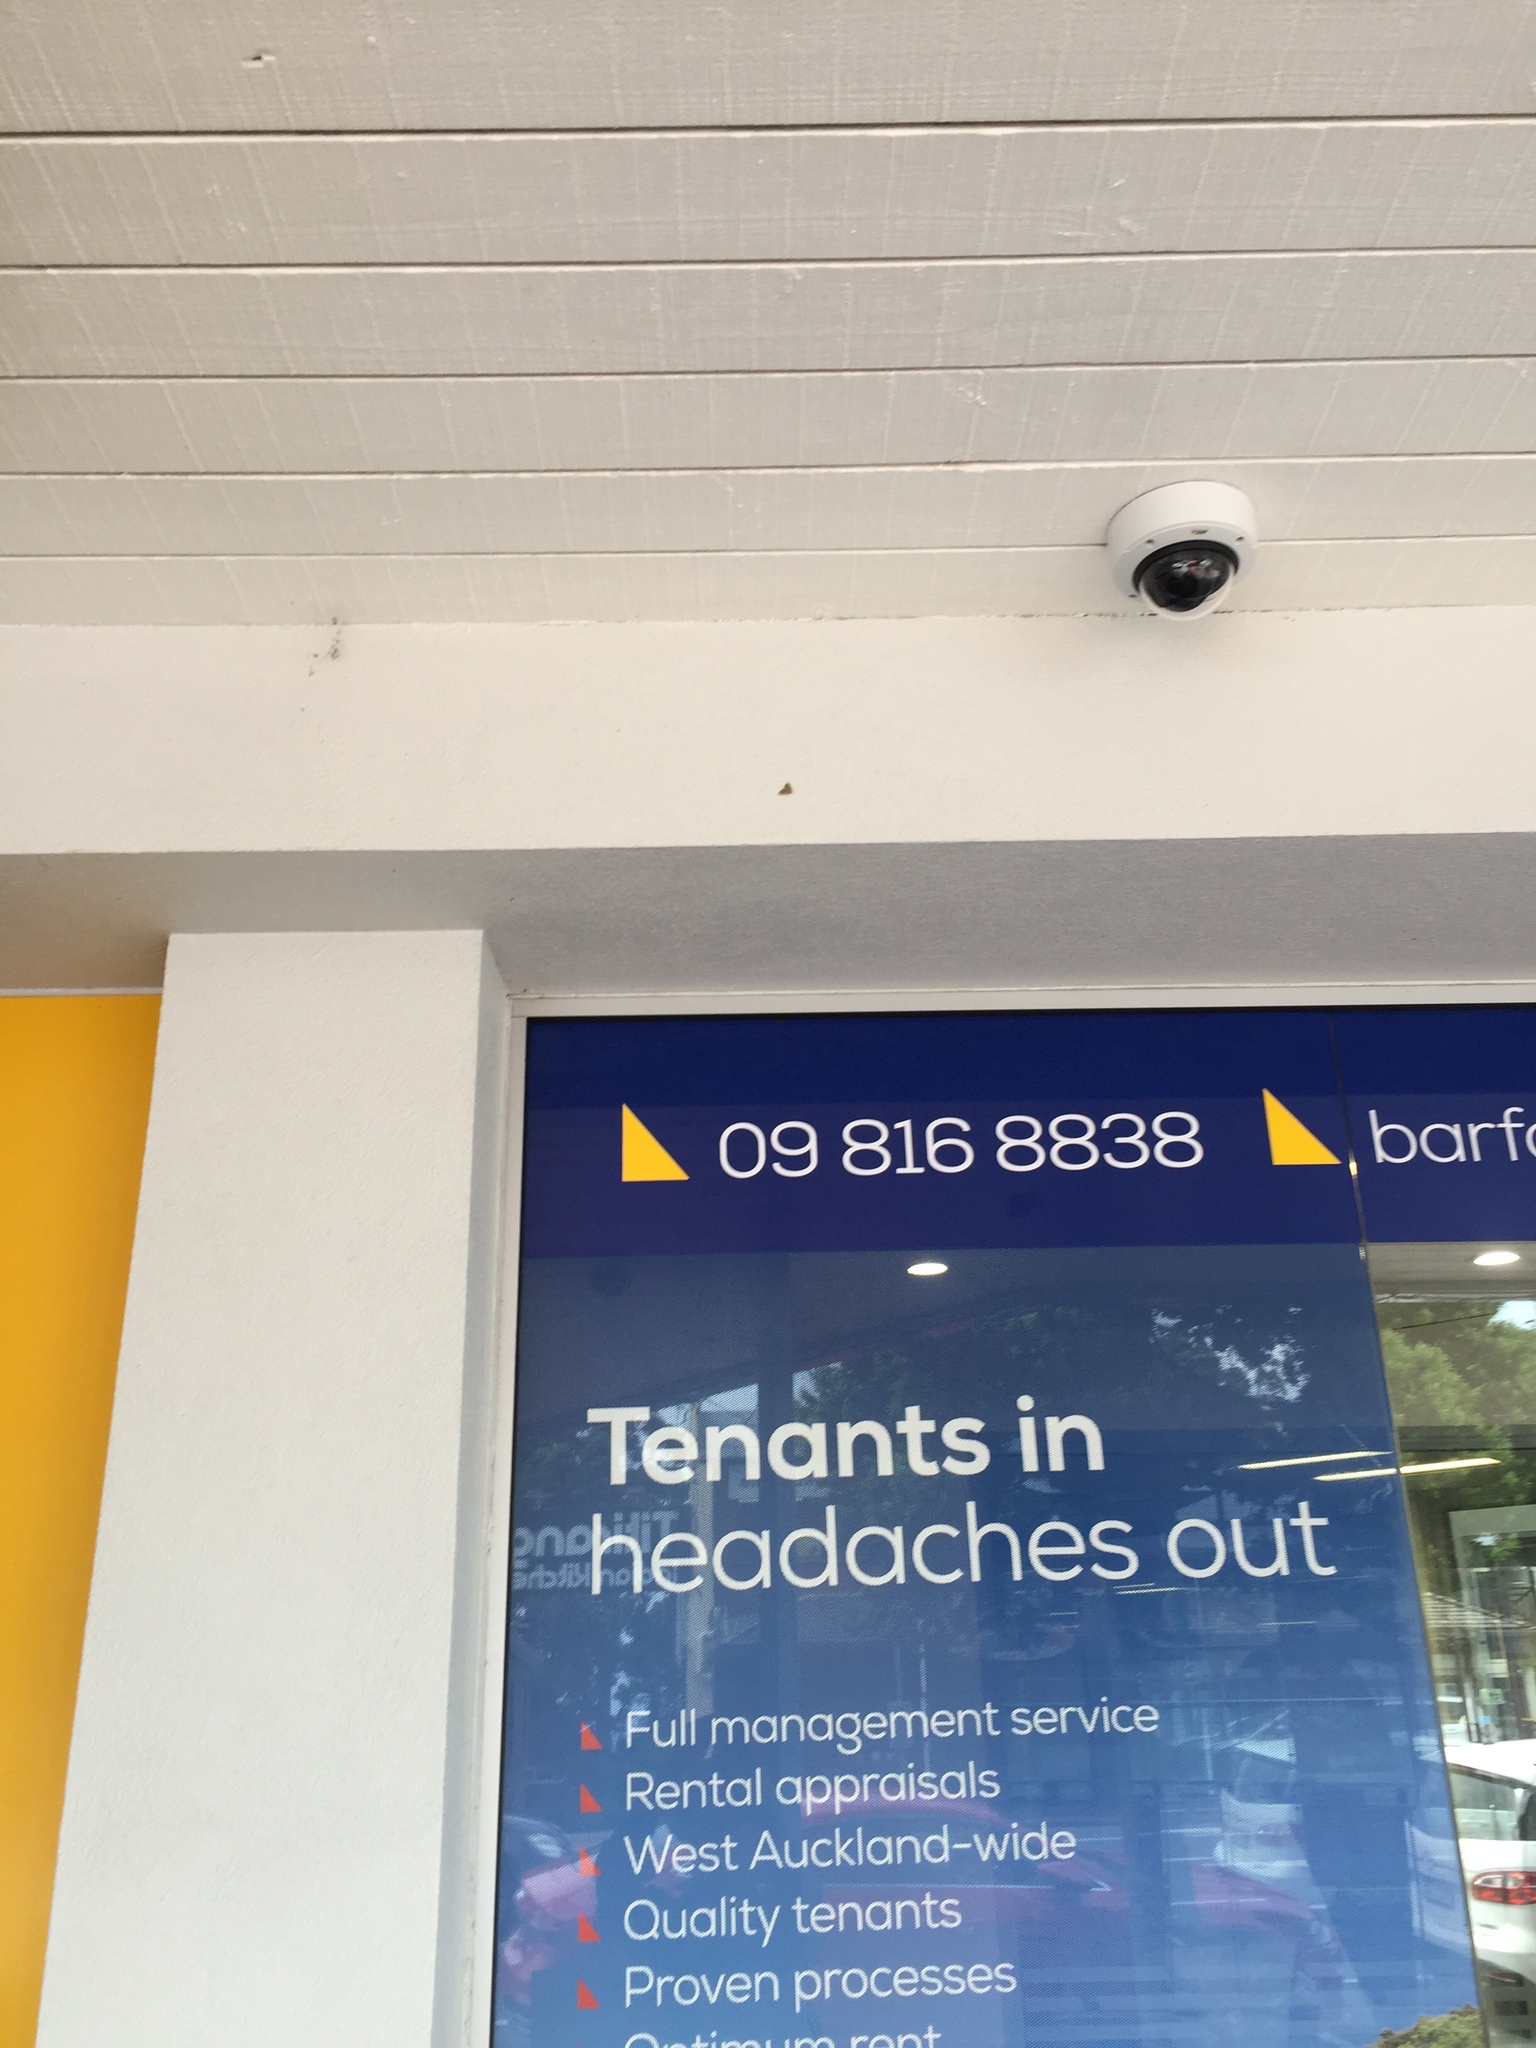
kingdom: Animalia
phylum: Arthropoda
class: Insecta
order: Lepidoptera
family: Geometridae
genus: Asaphodes
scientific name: Asaphodes beata
